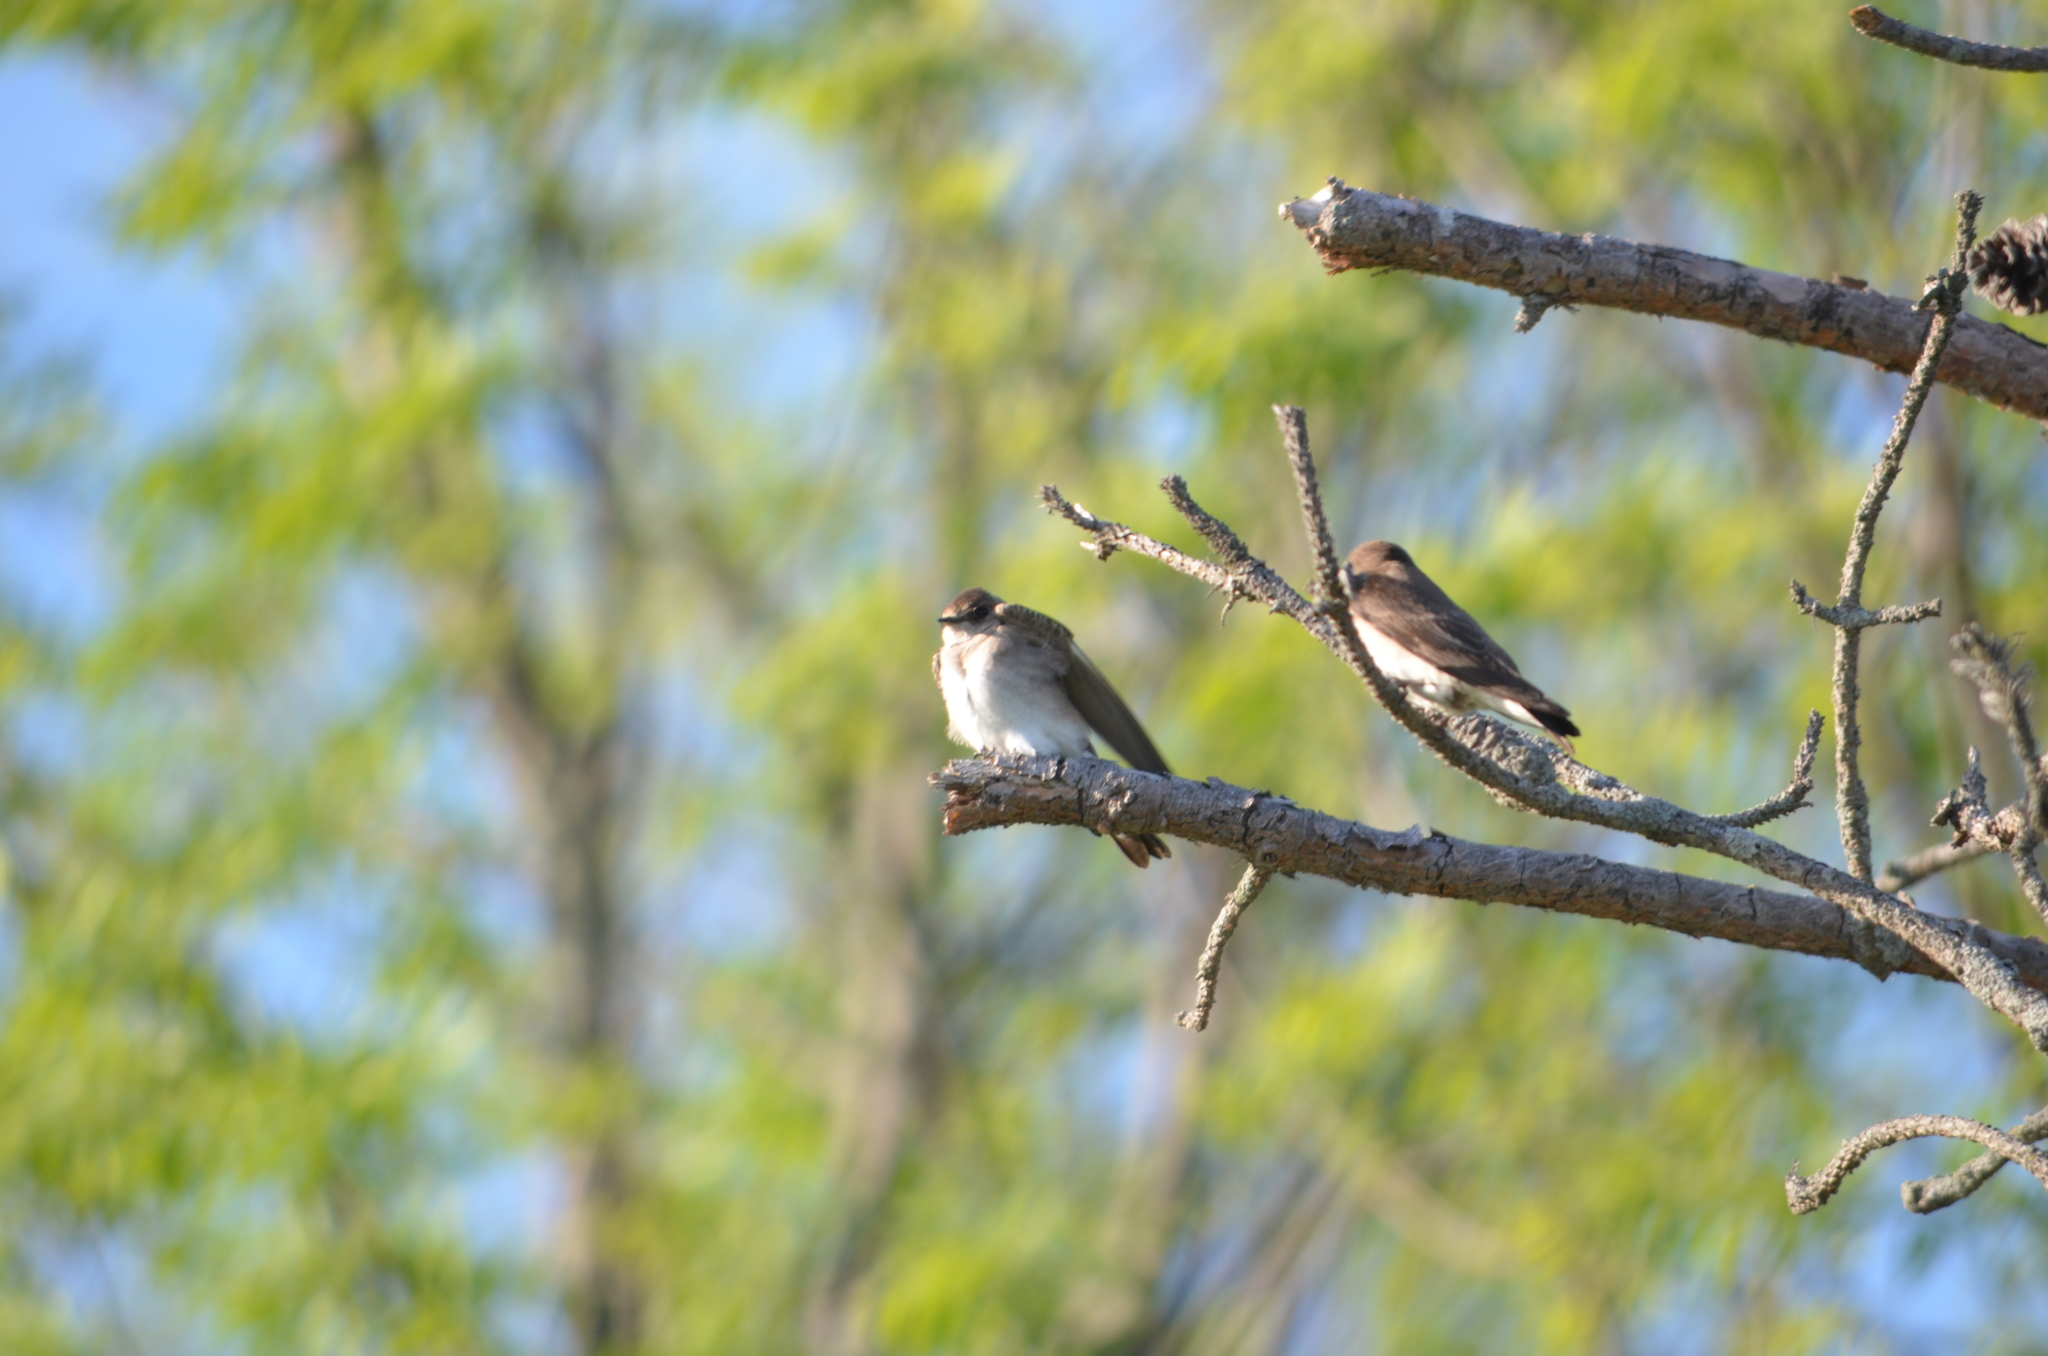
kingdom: Animalia
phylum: Chordata
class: Aves
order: Passeriformes
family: Hirundinidae
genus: Stelgidopteryx
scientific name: Stelgidopteryx serripennis
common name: Northern rough-winged swallow
